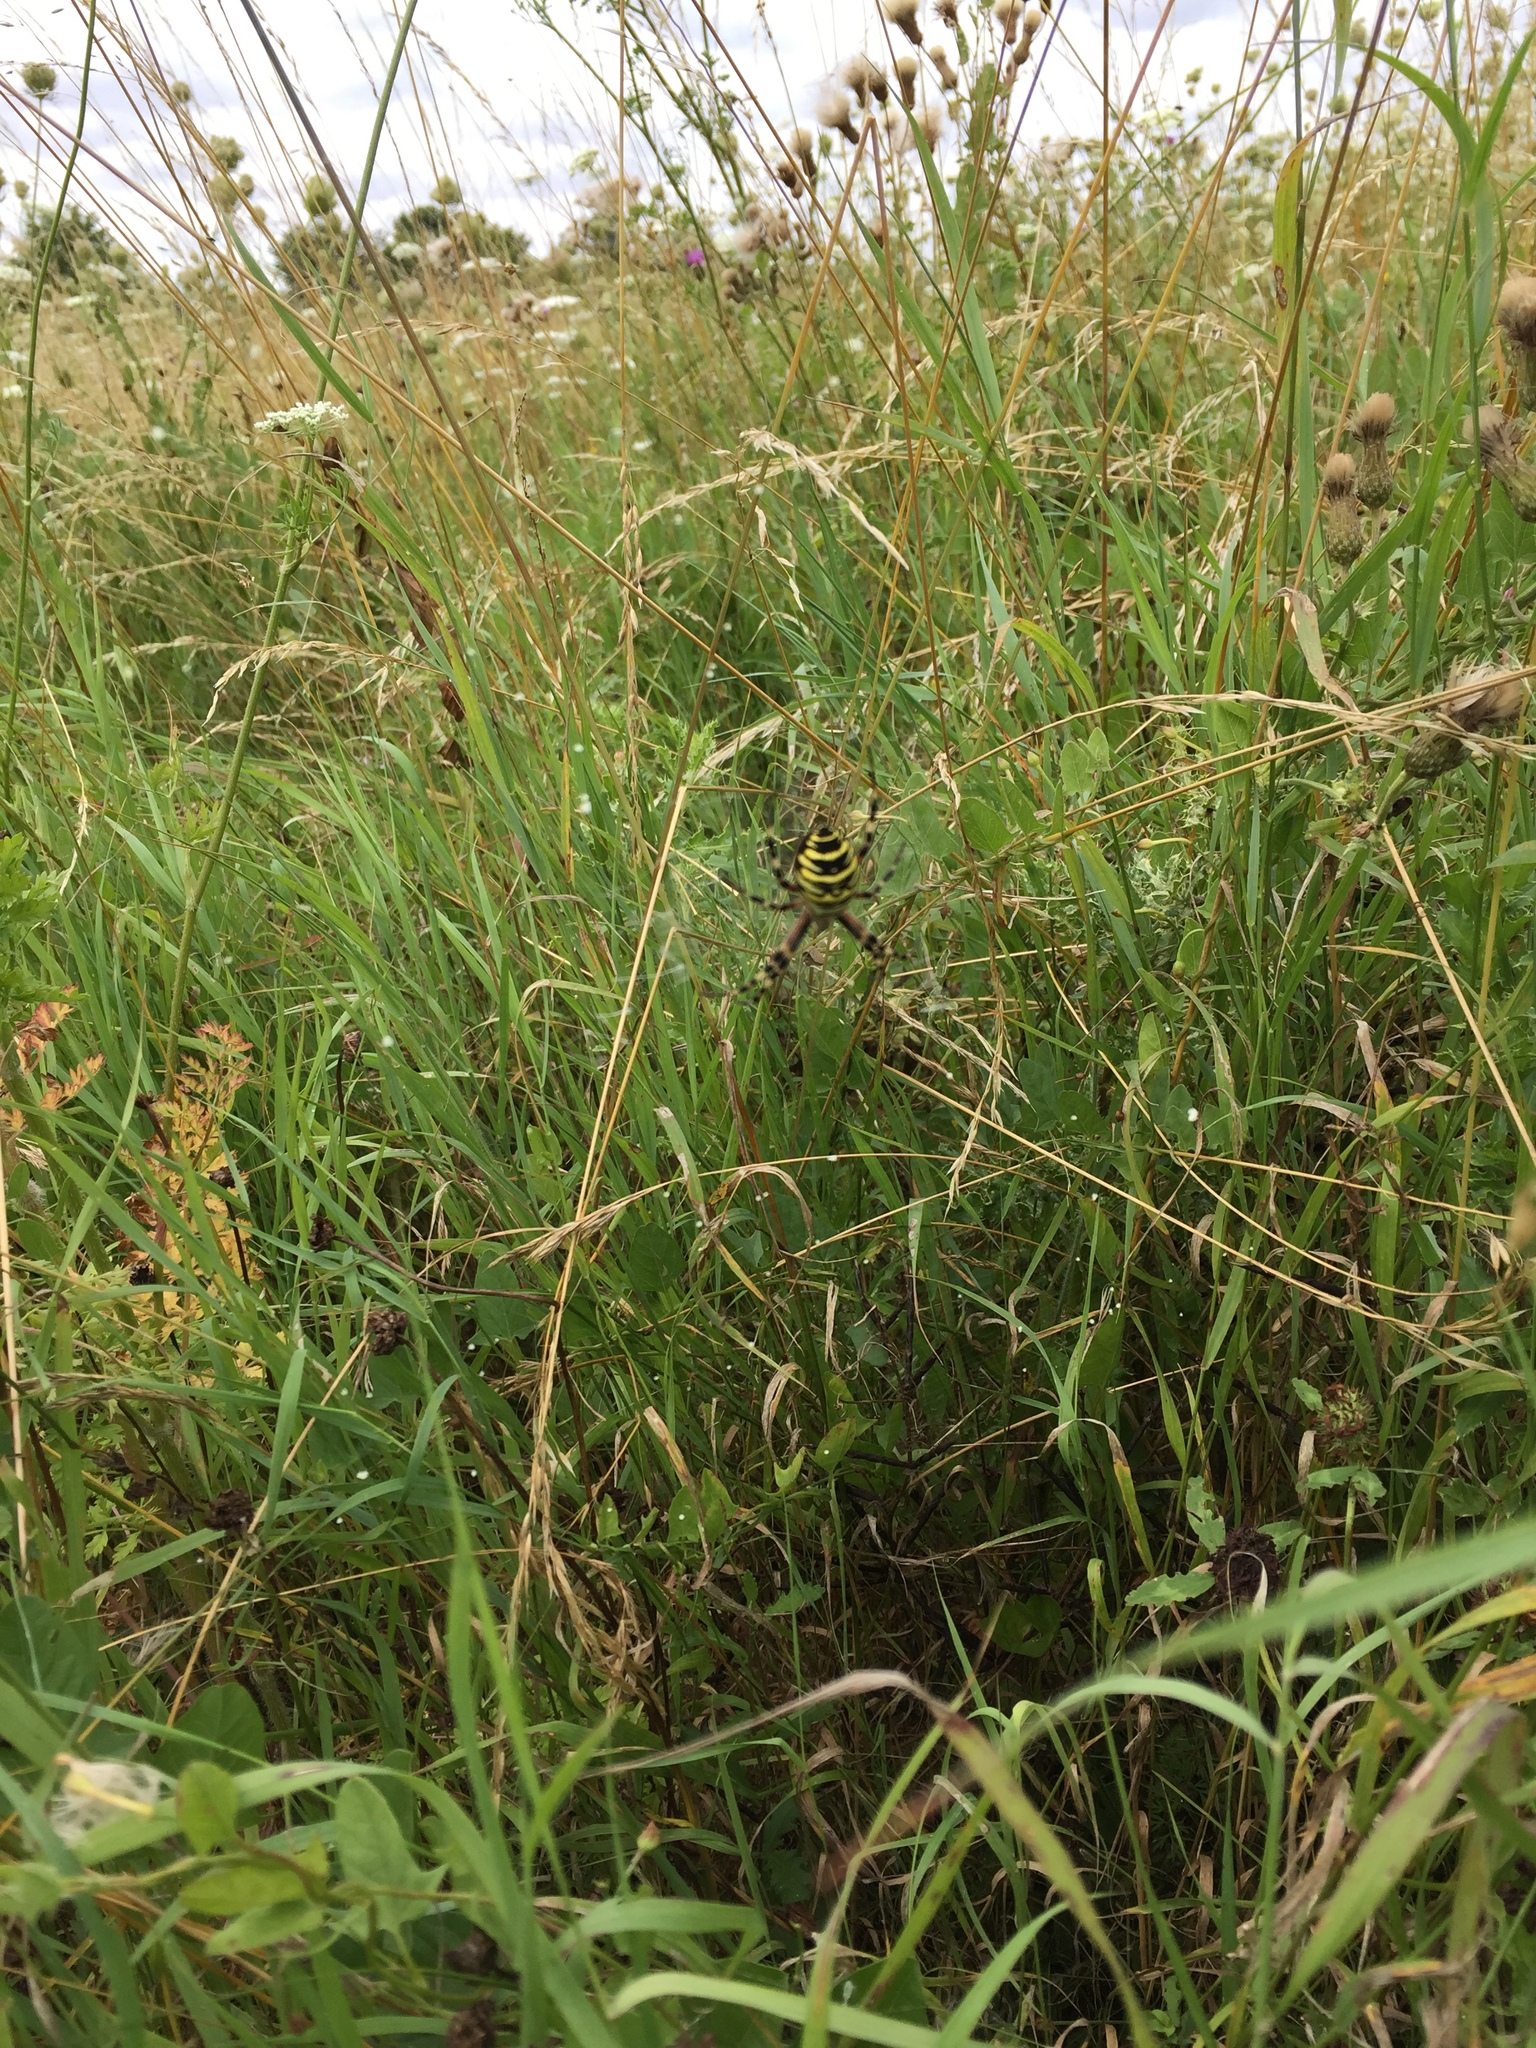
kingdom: Animalia
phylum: Arthropoda
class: Arachnida
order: Araneae
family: Araneidae
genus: Argiope
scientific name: Argiope bruennichi
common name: Wasp spider
